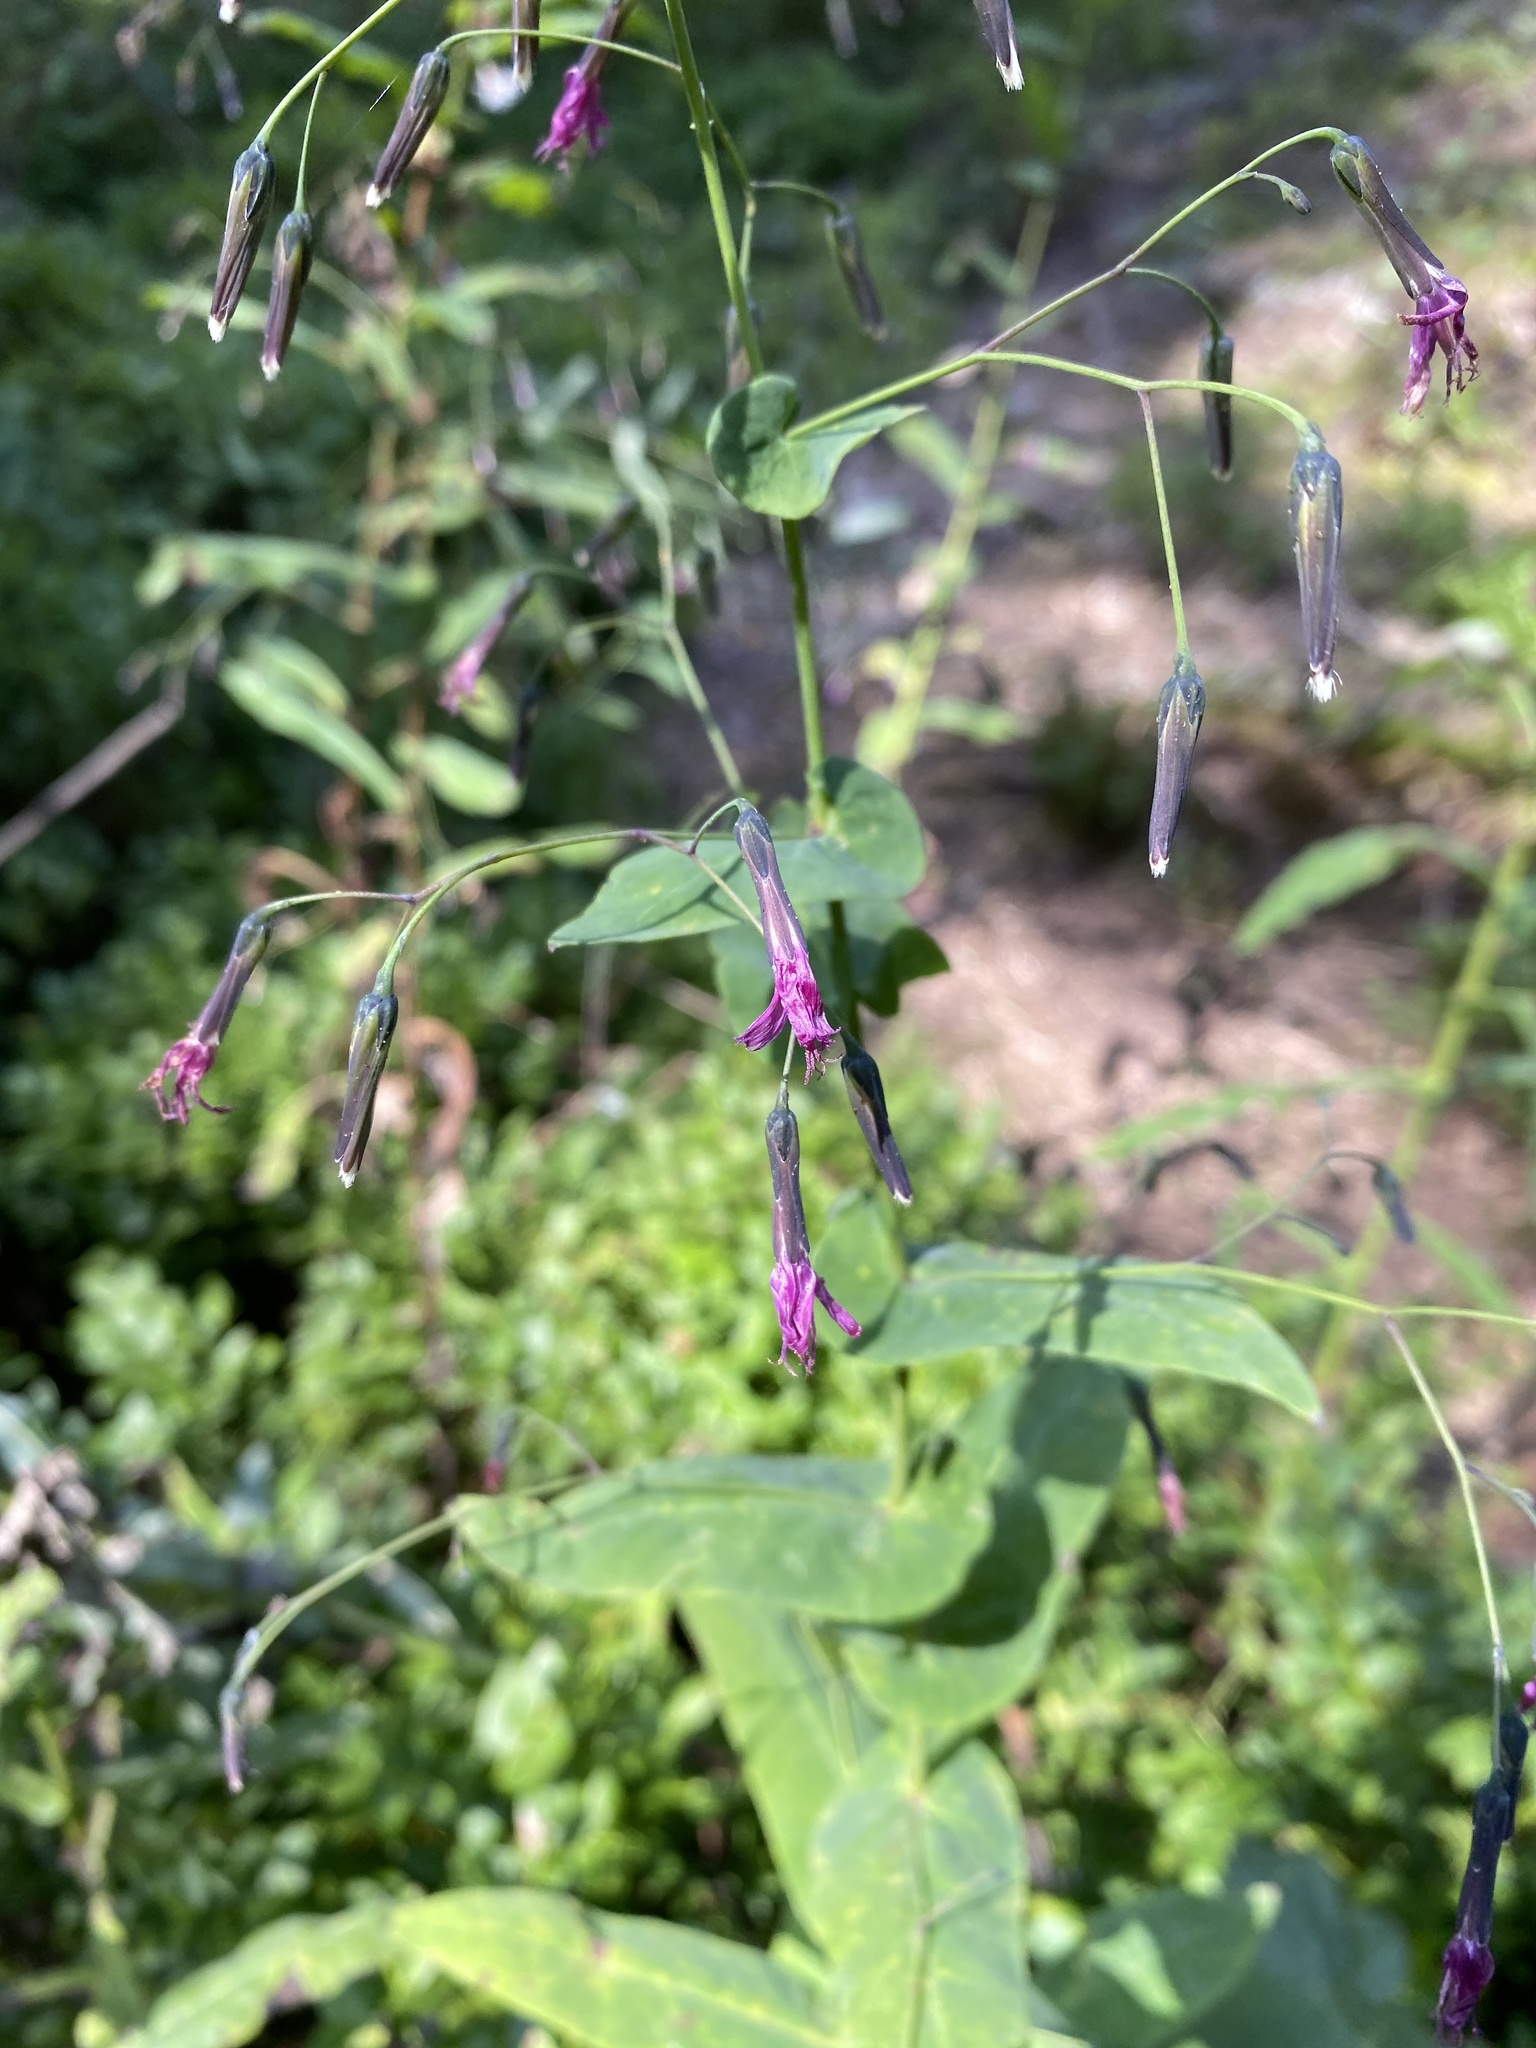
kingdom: Plantae
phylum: Tracheophyta
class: Magnoliopsida
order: Asterales
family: Asteraceae
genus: Prenanthes
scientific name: Prenanthes purpurea
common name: Purple lettuce
